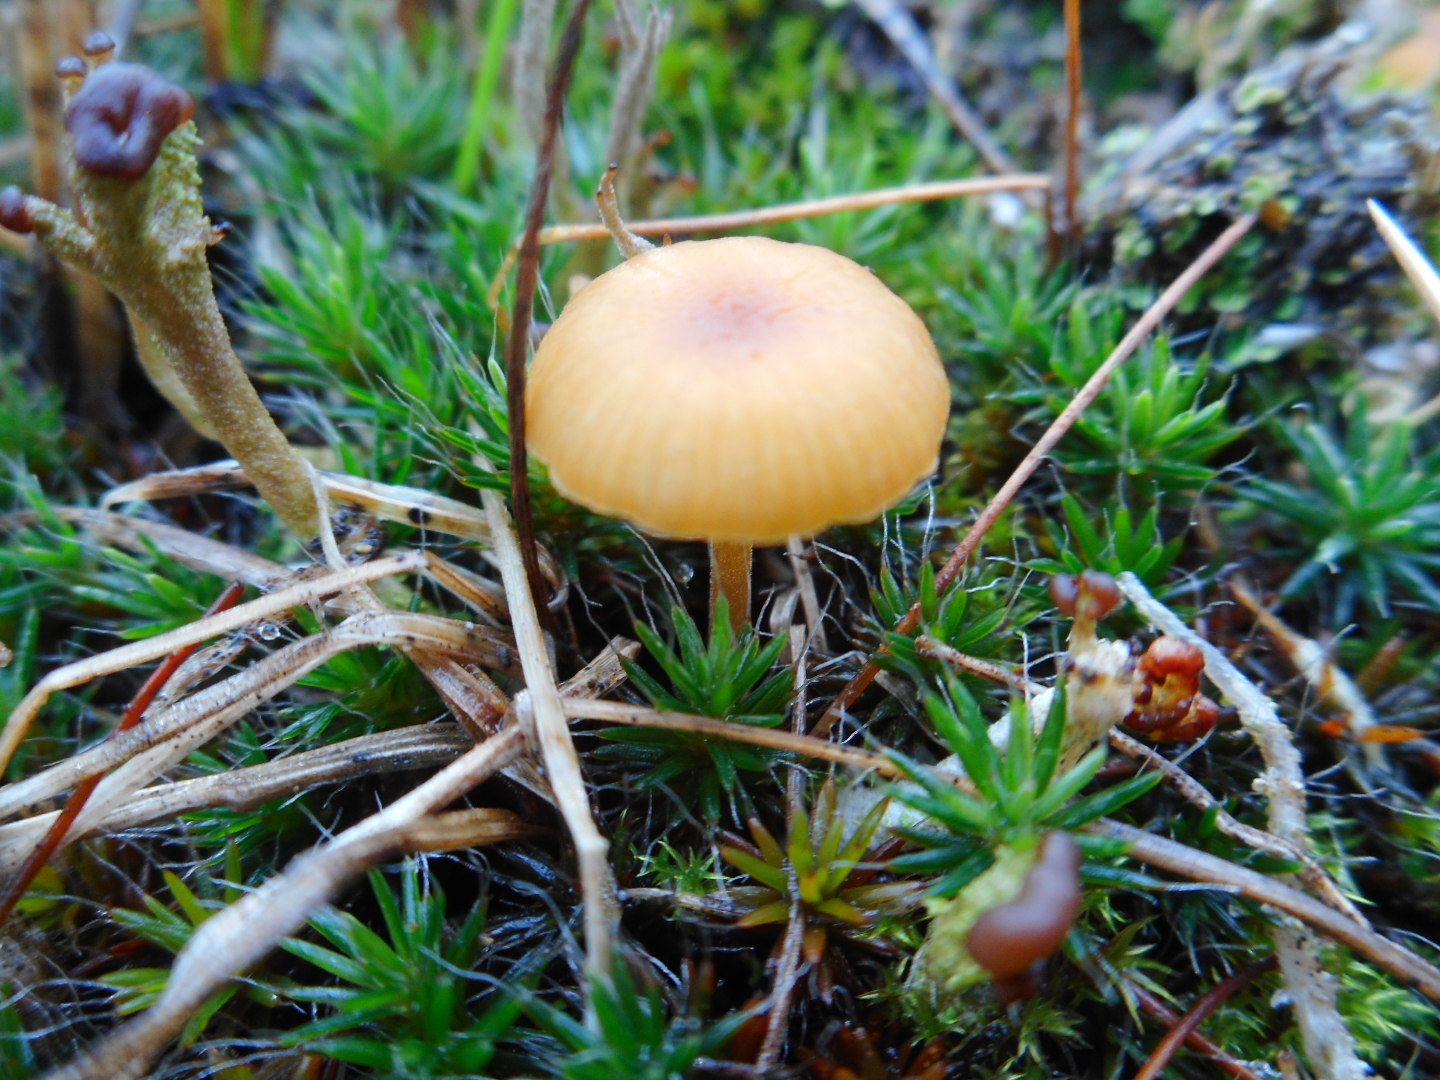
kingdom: Fungi
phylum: Basidiomycota
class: Agaricomycetes
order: Hymenochaetales
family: Rickenellaceae
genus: Rickenella
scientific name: Rickenella fibula
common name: Orange mosscap
